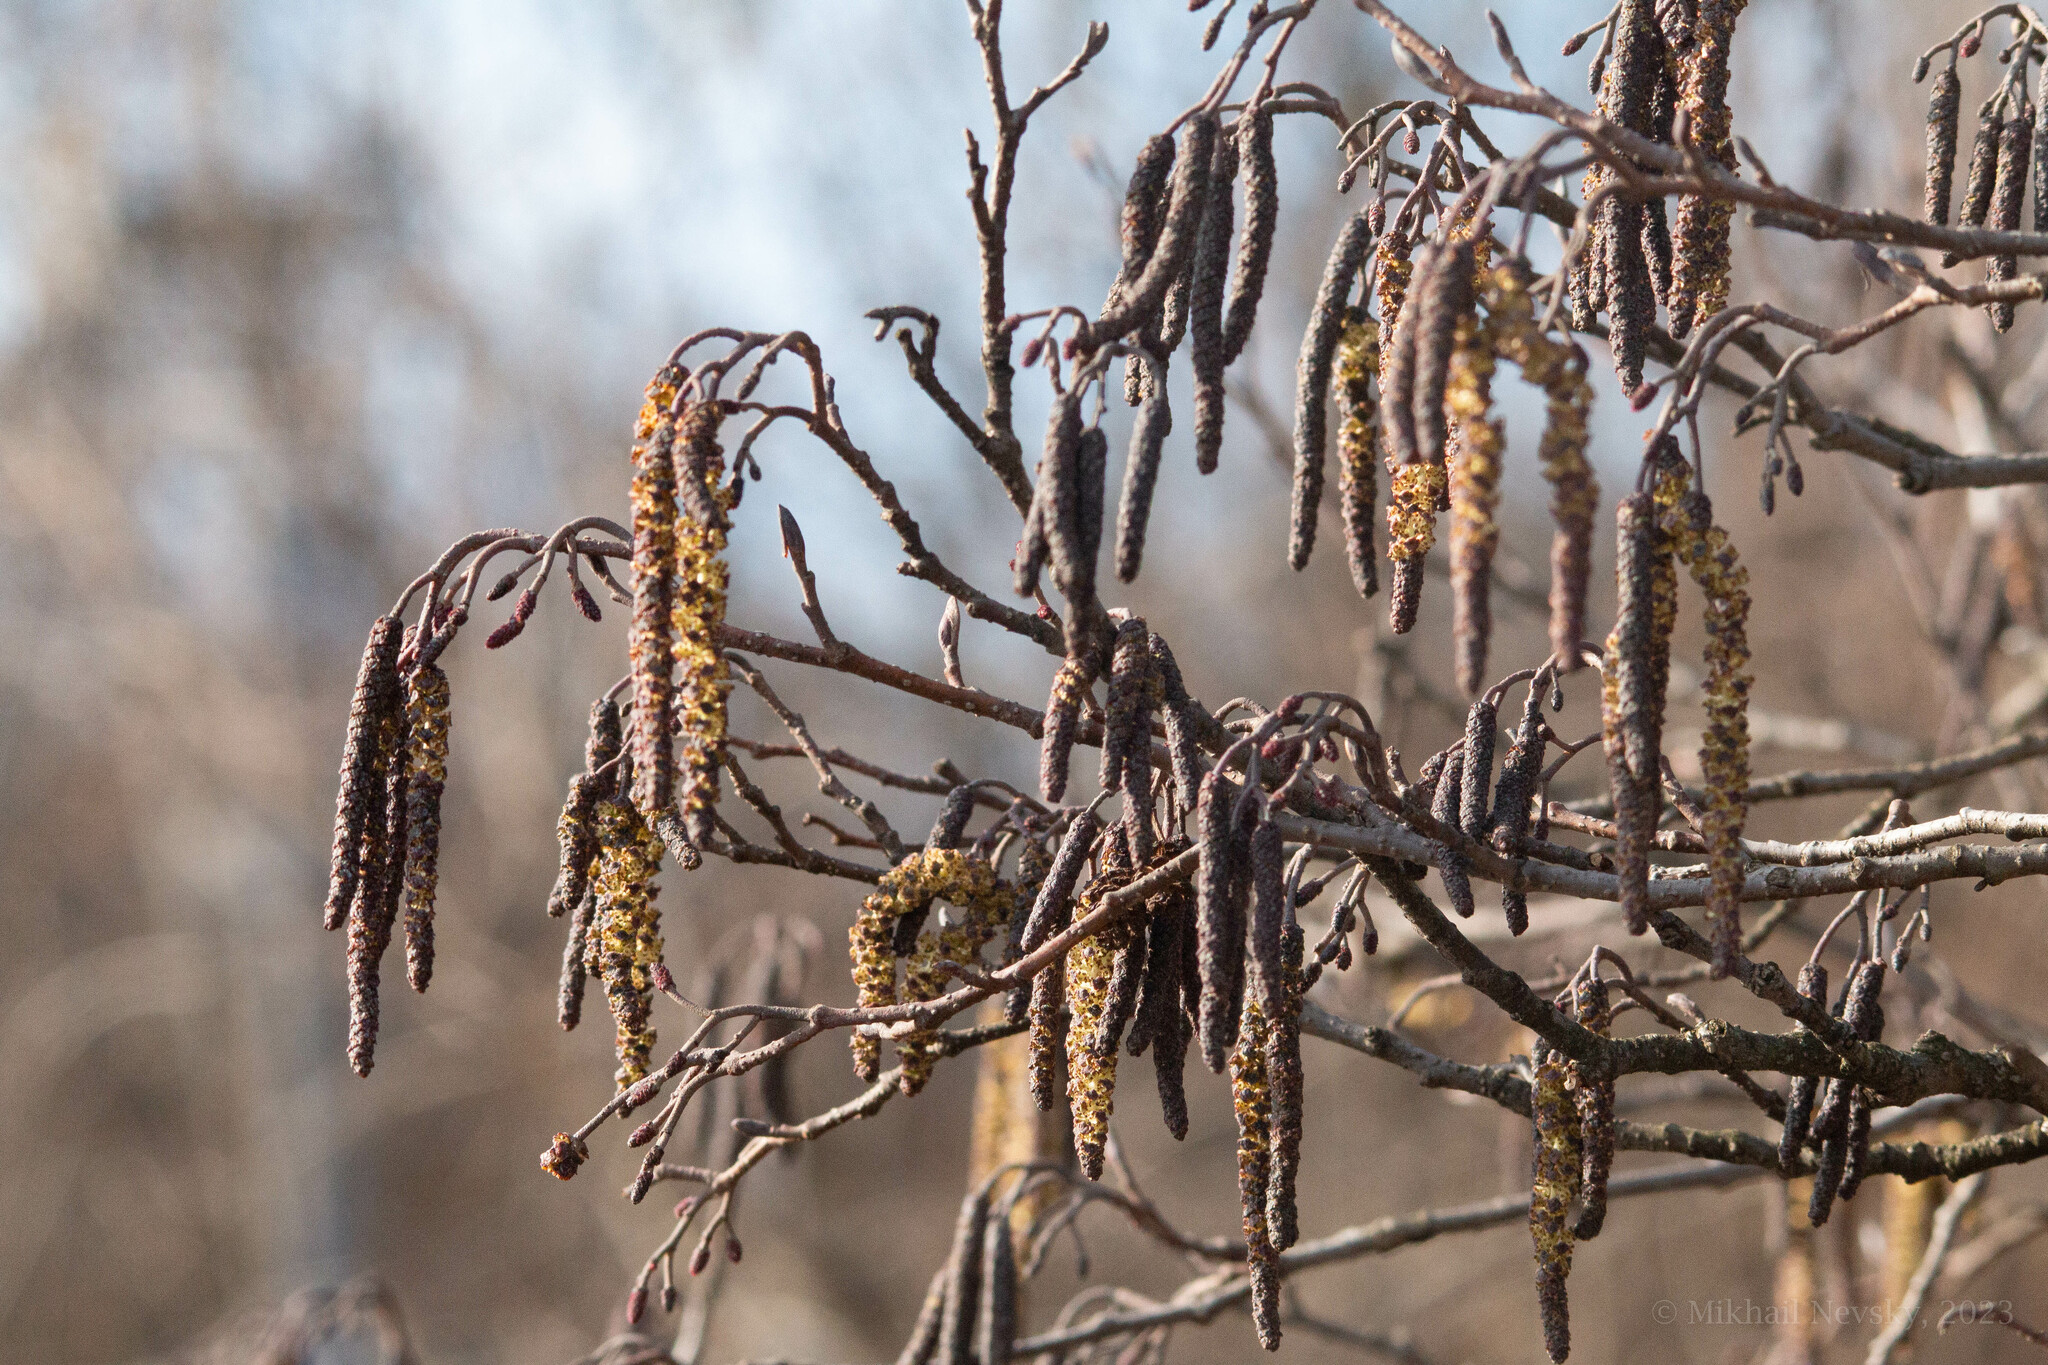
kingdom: Plantae
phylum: Tracheophyta
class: Magnoliopsida
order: Fagales
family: Betulaceae
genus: Alnus
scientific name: Alnus glutinosa
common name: Black alder
